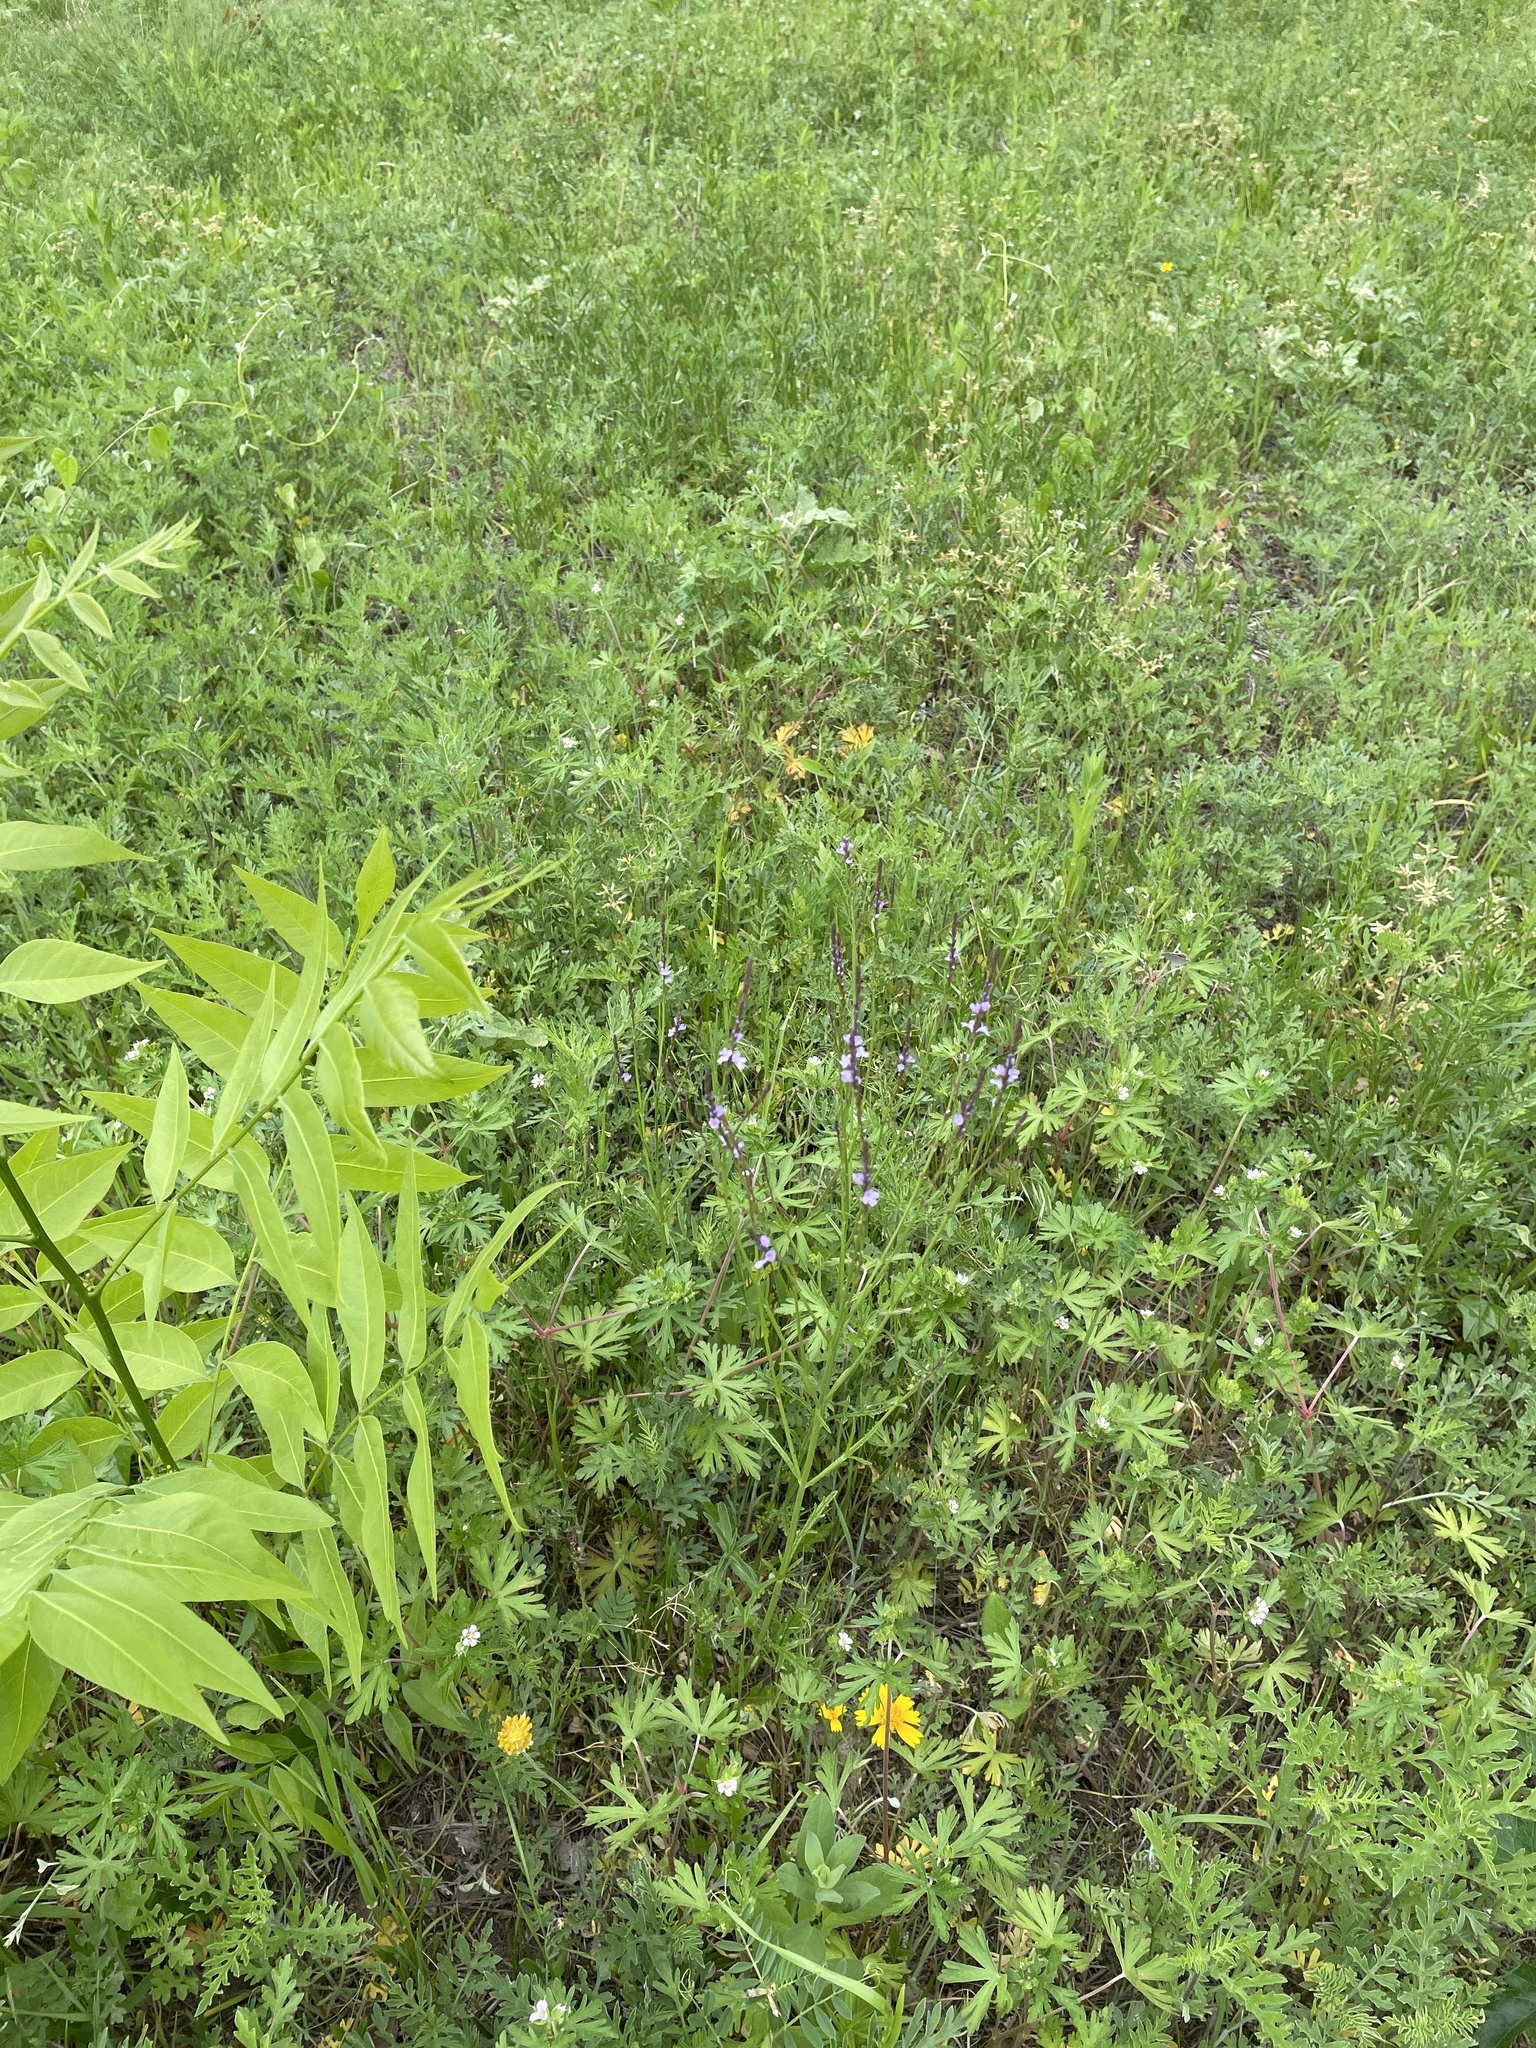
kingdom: Plantae
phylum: Tracheophyta
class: Magnoliopsida
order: Lamiales
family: Verbenaceae
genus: Verbena
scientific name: Verbena halei
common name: Texas vervain
